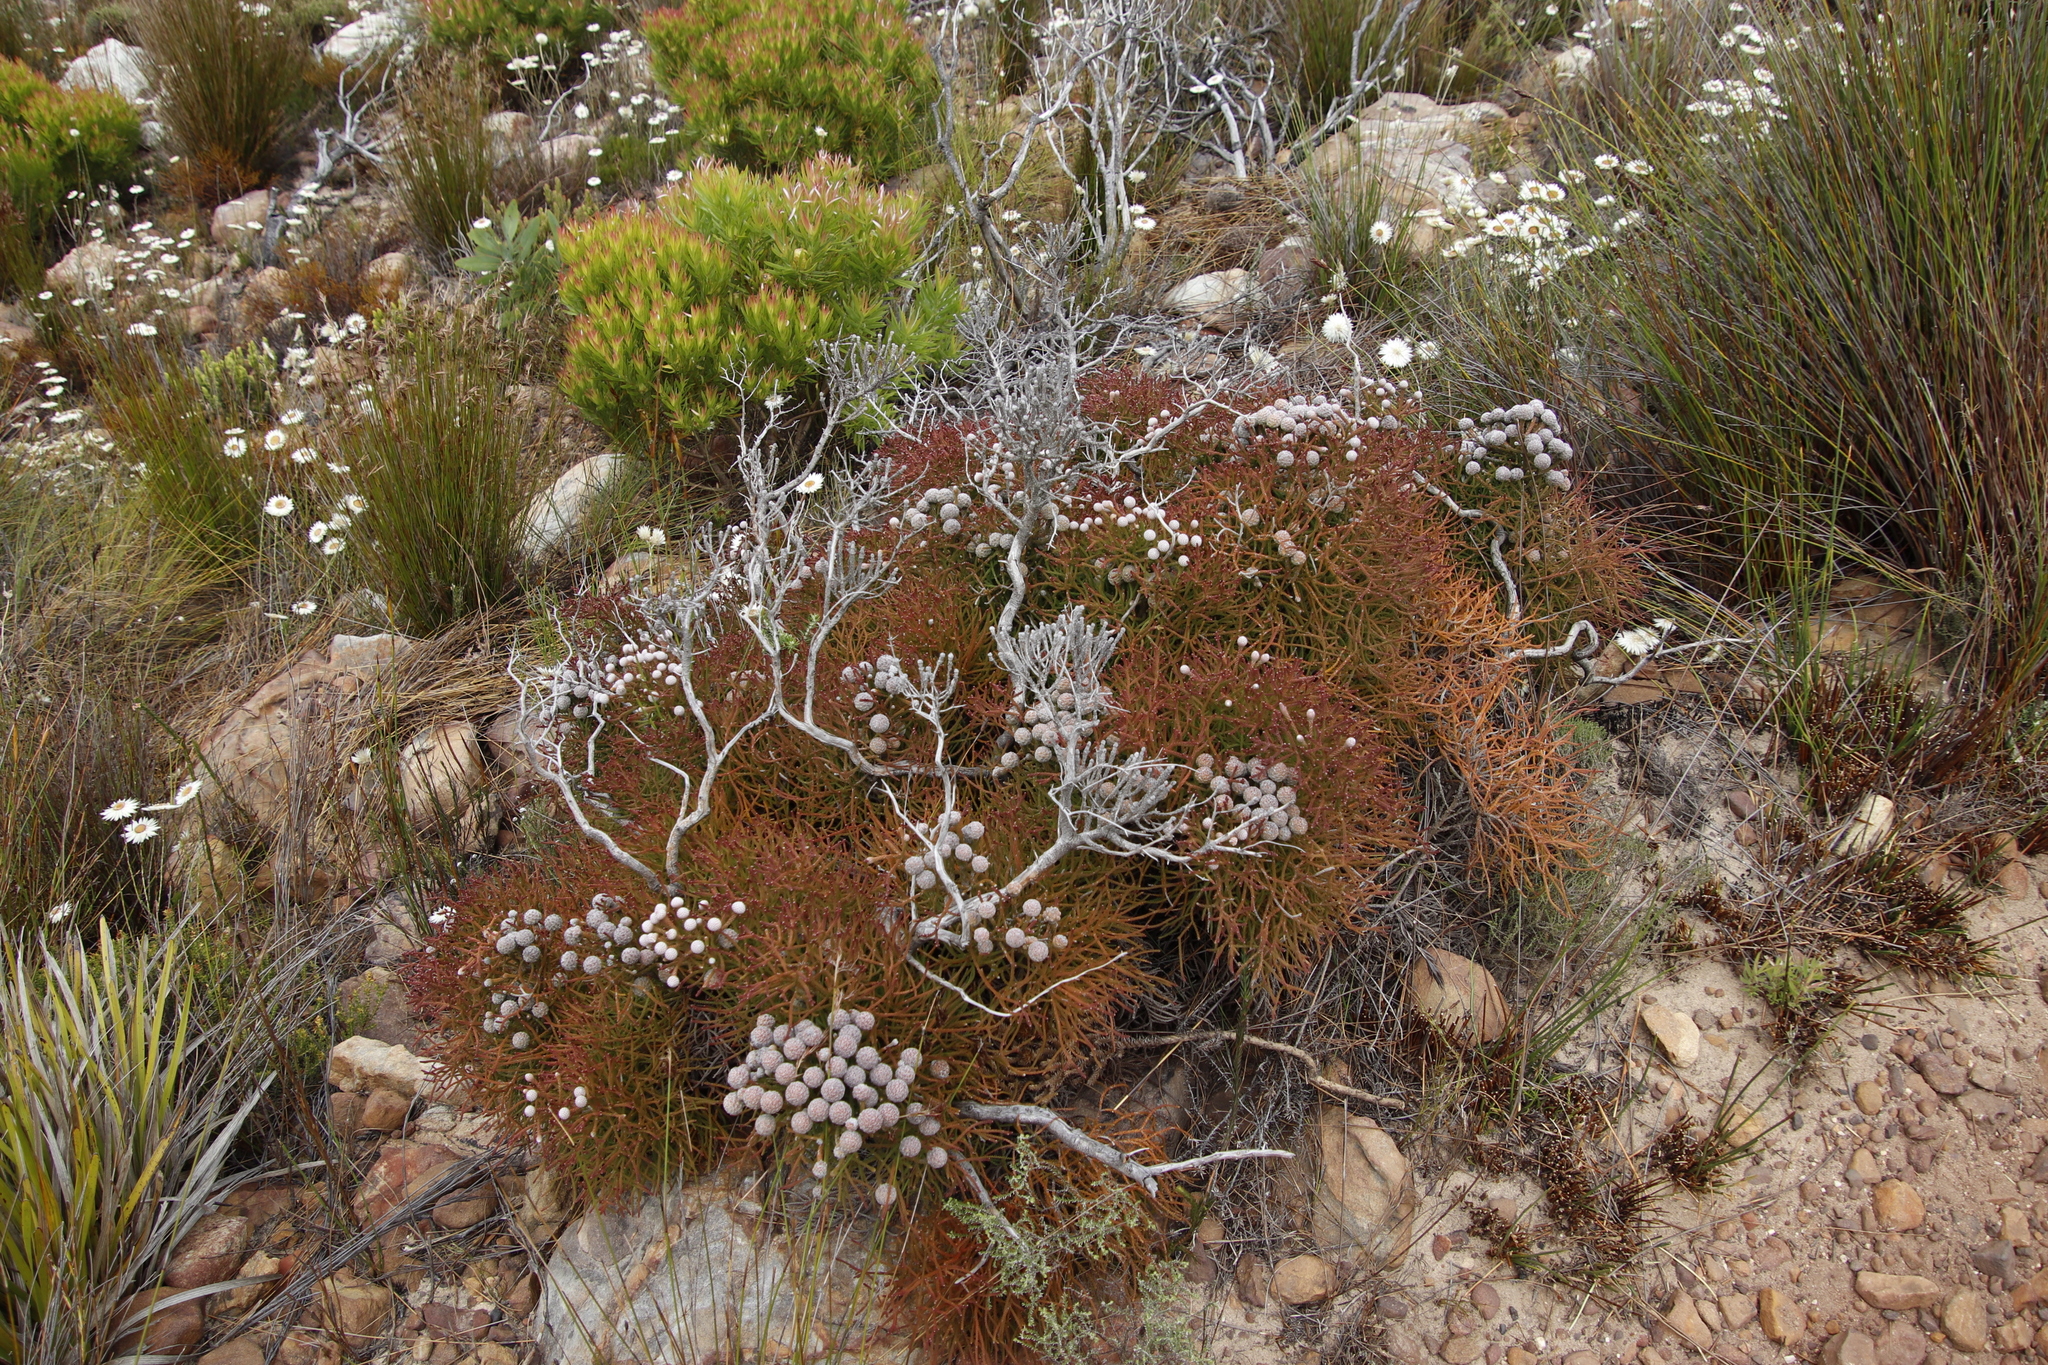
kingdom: Plantae
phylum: Tracheophyta
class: Magnoliopsida
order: Bruniales
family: Bruniaceae
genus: Brunia
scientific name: Brunia noduliflora
